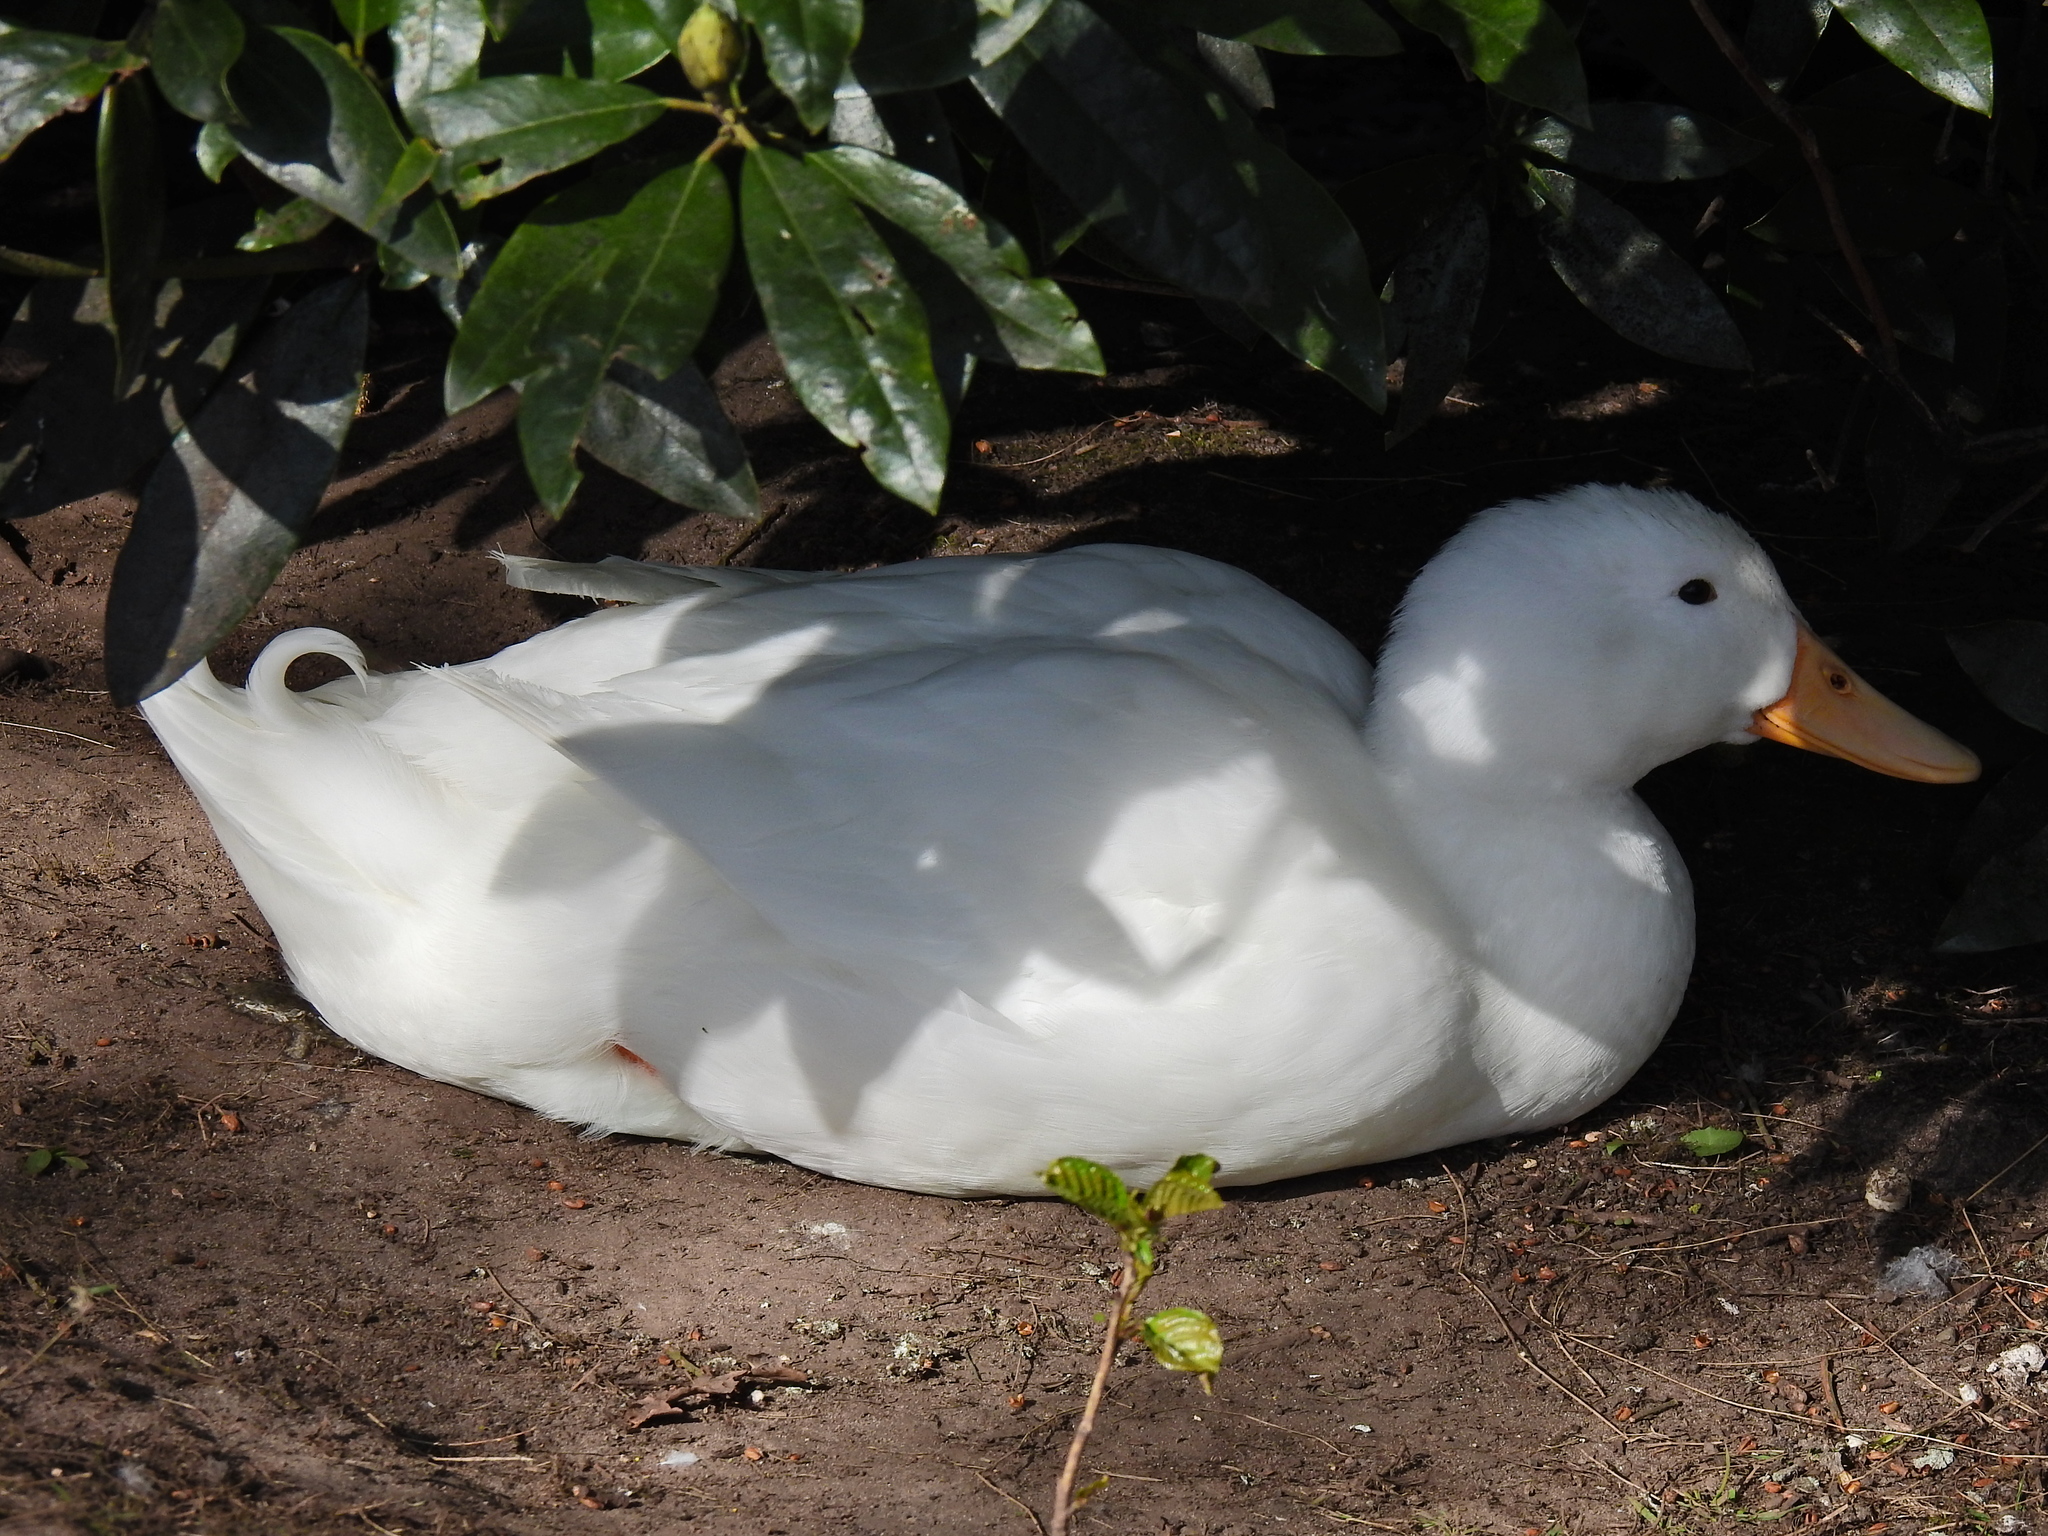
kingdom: Animalia
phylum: Chordata
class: Aves
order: Anseriformes
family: Anatidae
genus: Anas
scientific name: Anas platyrhynchos
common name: Mallard
